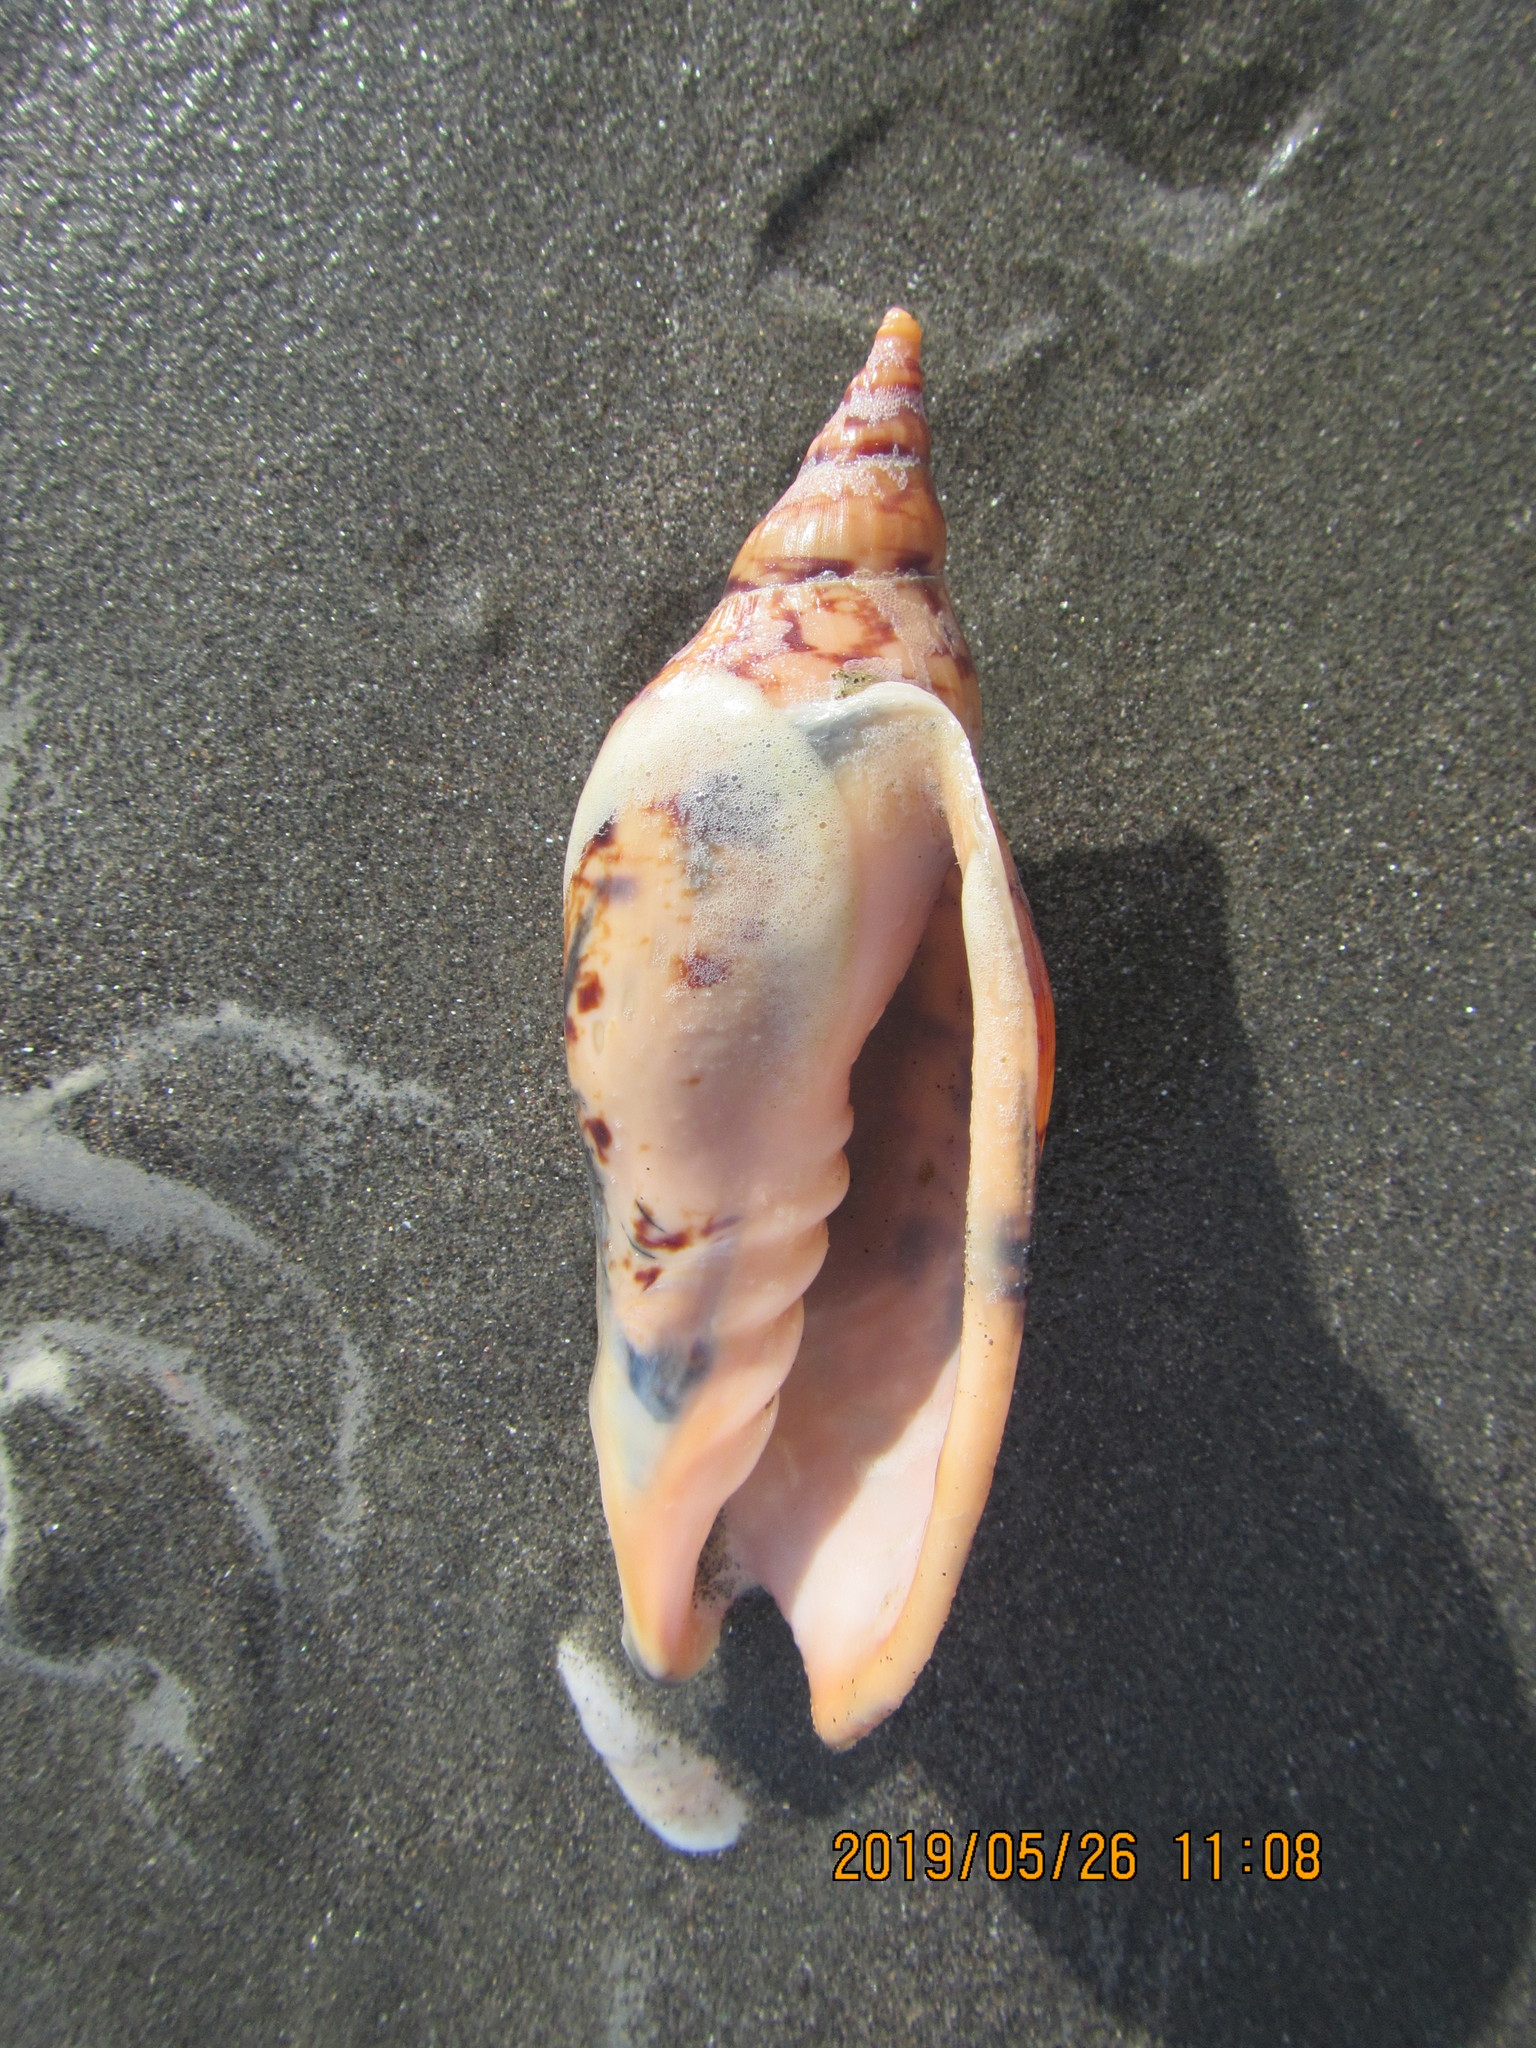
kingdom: Animalia
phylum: Mollusca
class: Gastropoda
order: Neogastropoda
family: Volutidae
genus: Alcithoe
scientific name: Alcithoe arabica
